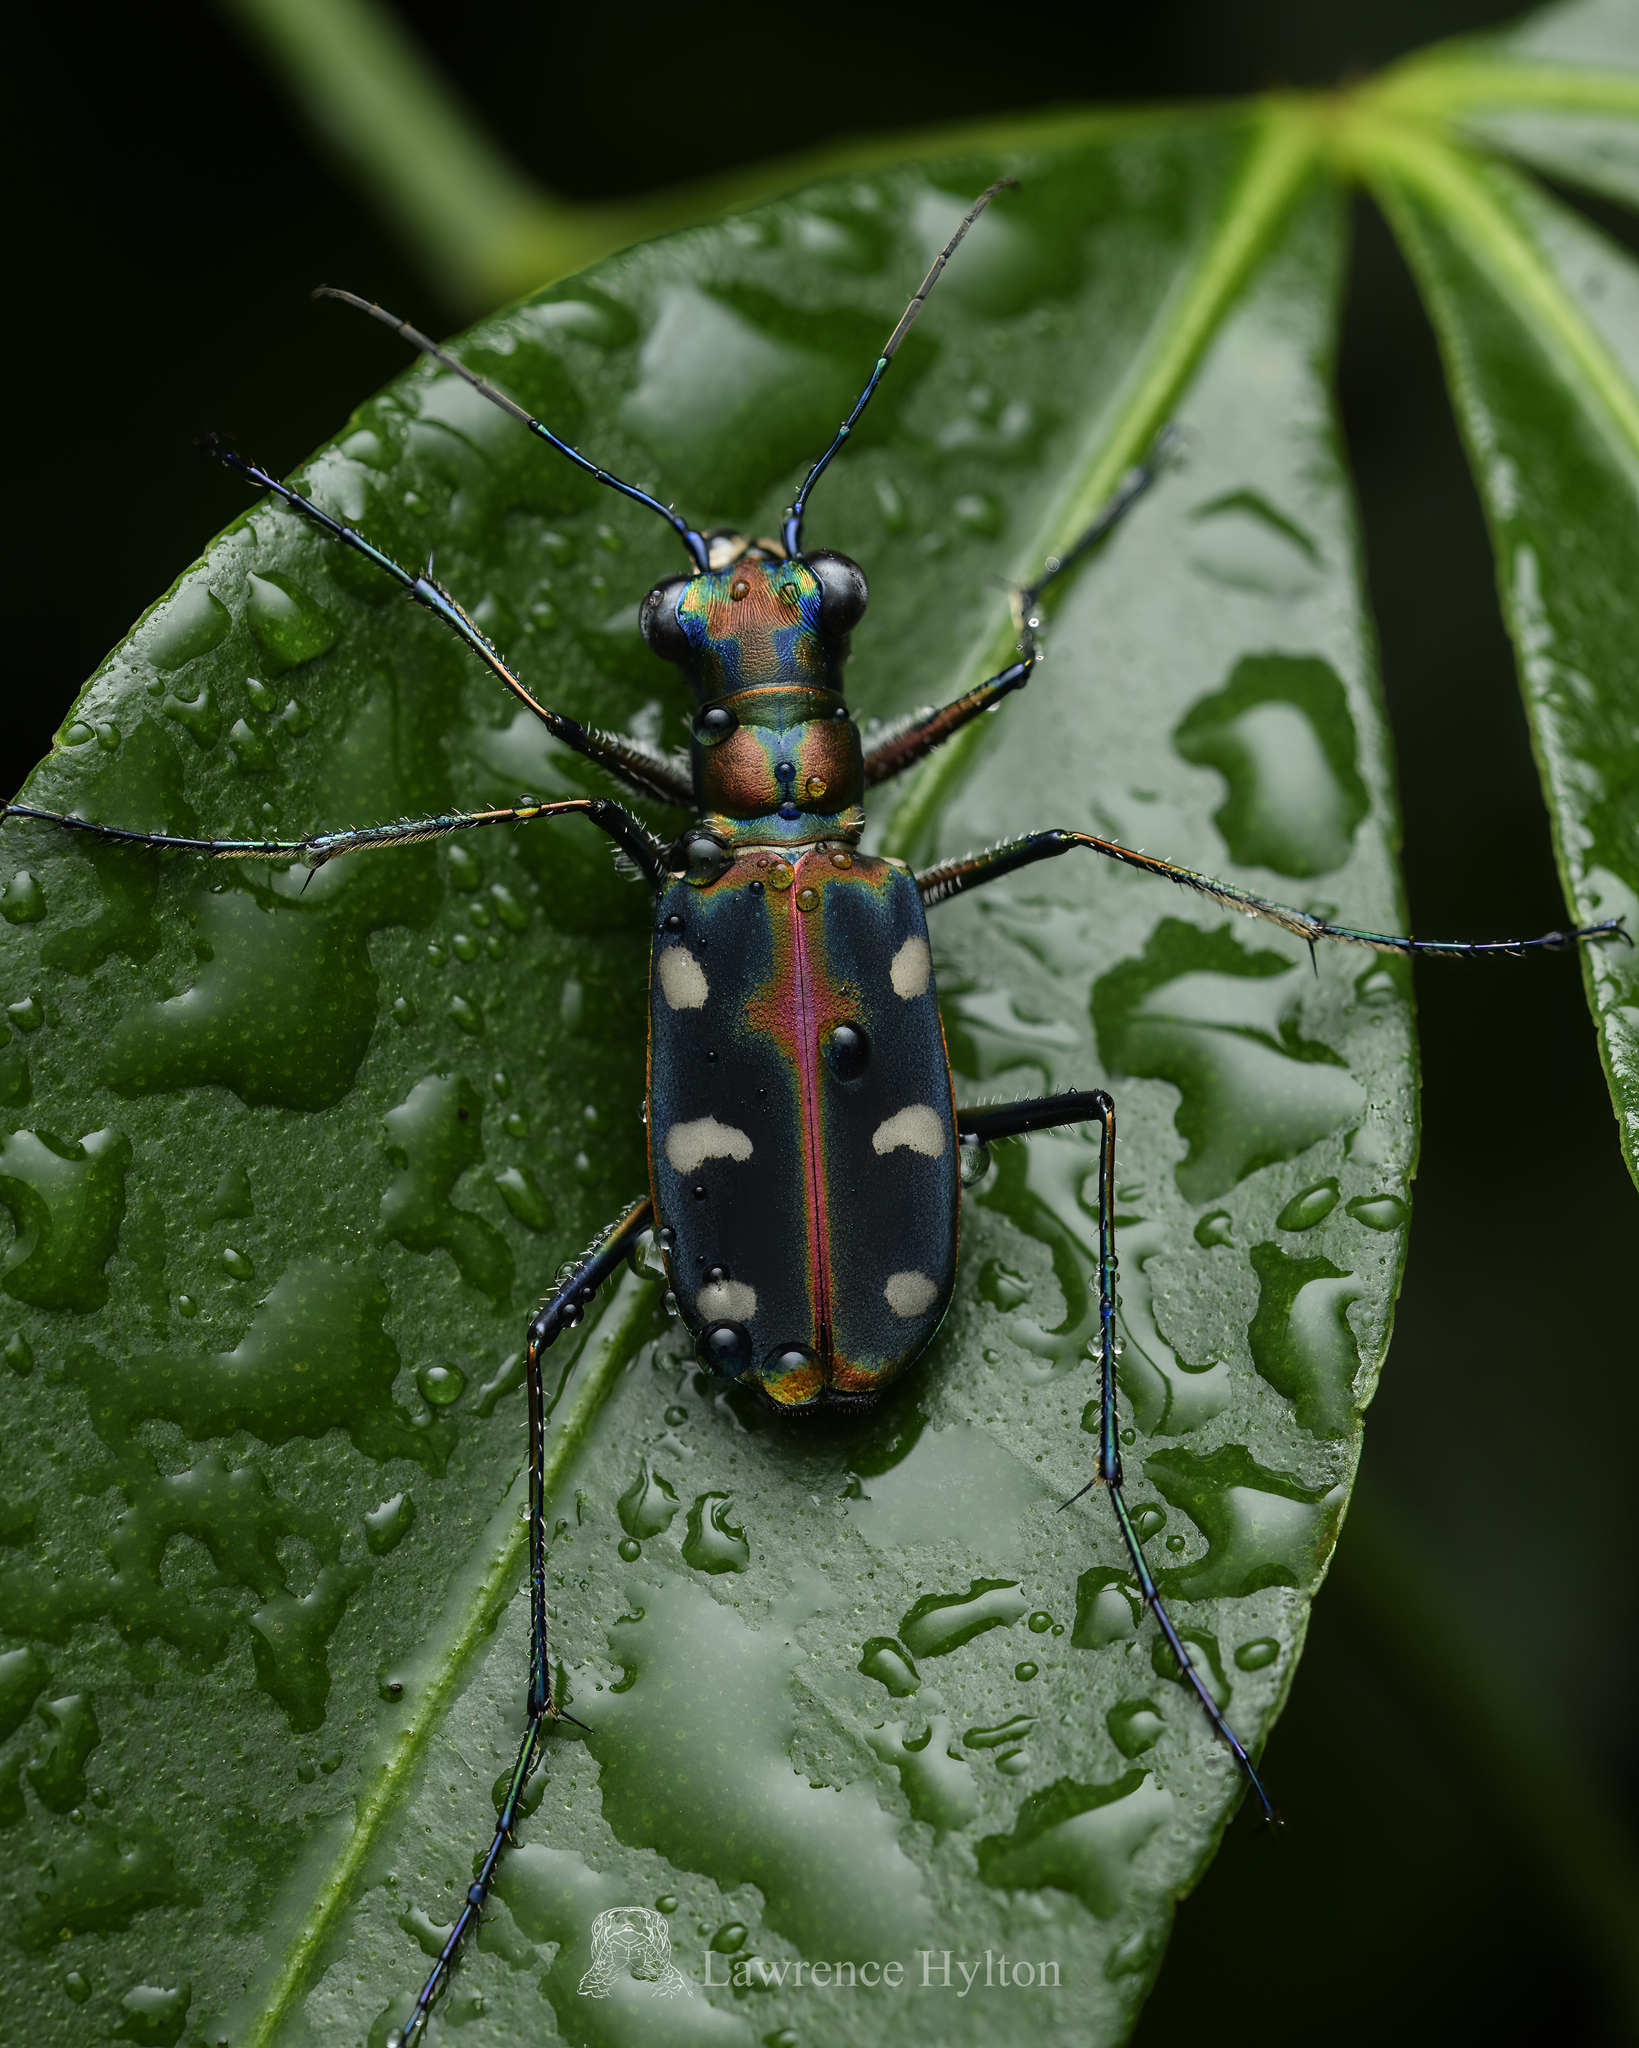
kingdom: Animalia
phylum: Arthropoda
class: Insecta
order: Coleoptera
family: Carabidae
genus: Cicindela
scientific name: Cicindela aurulenta
